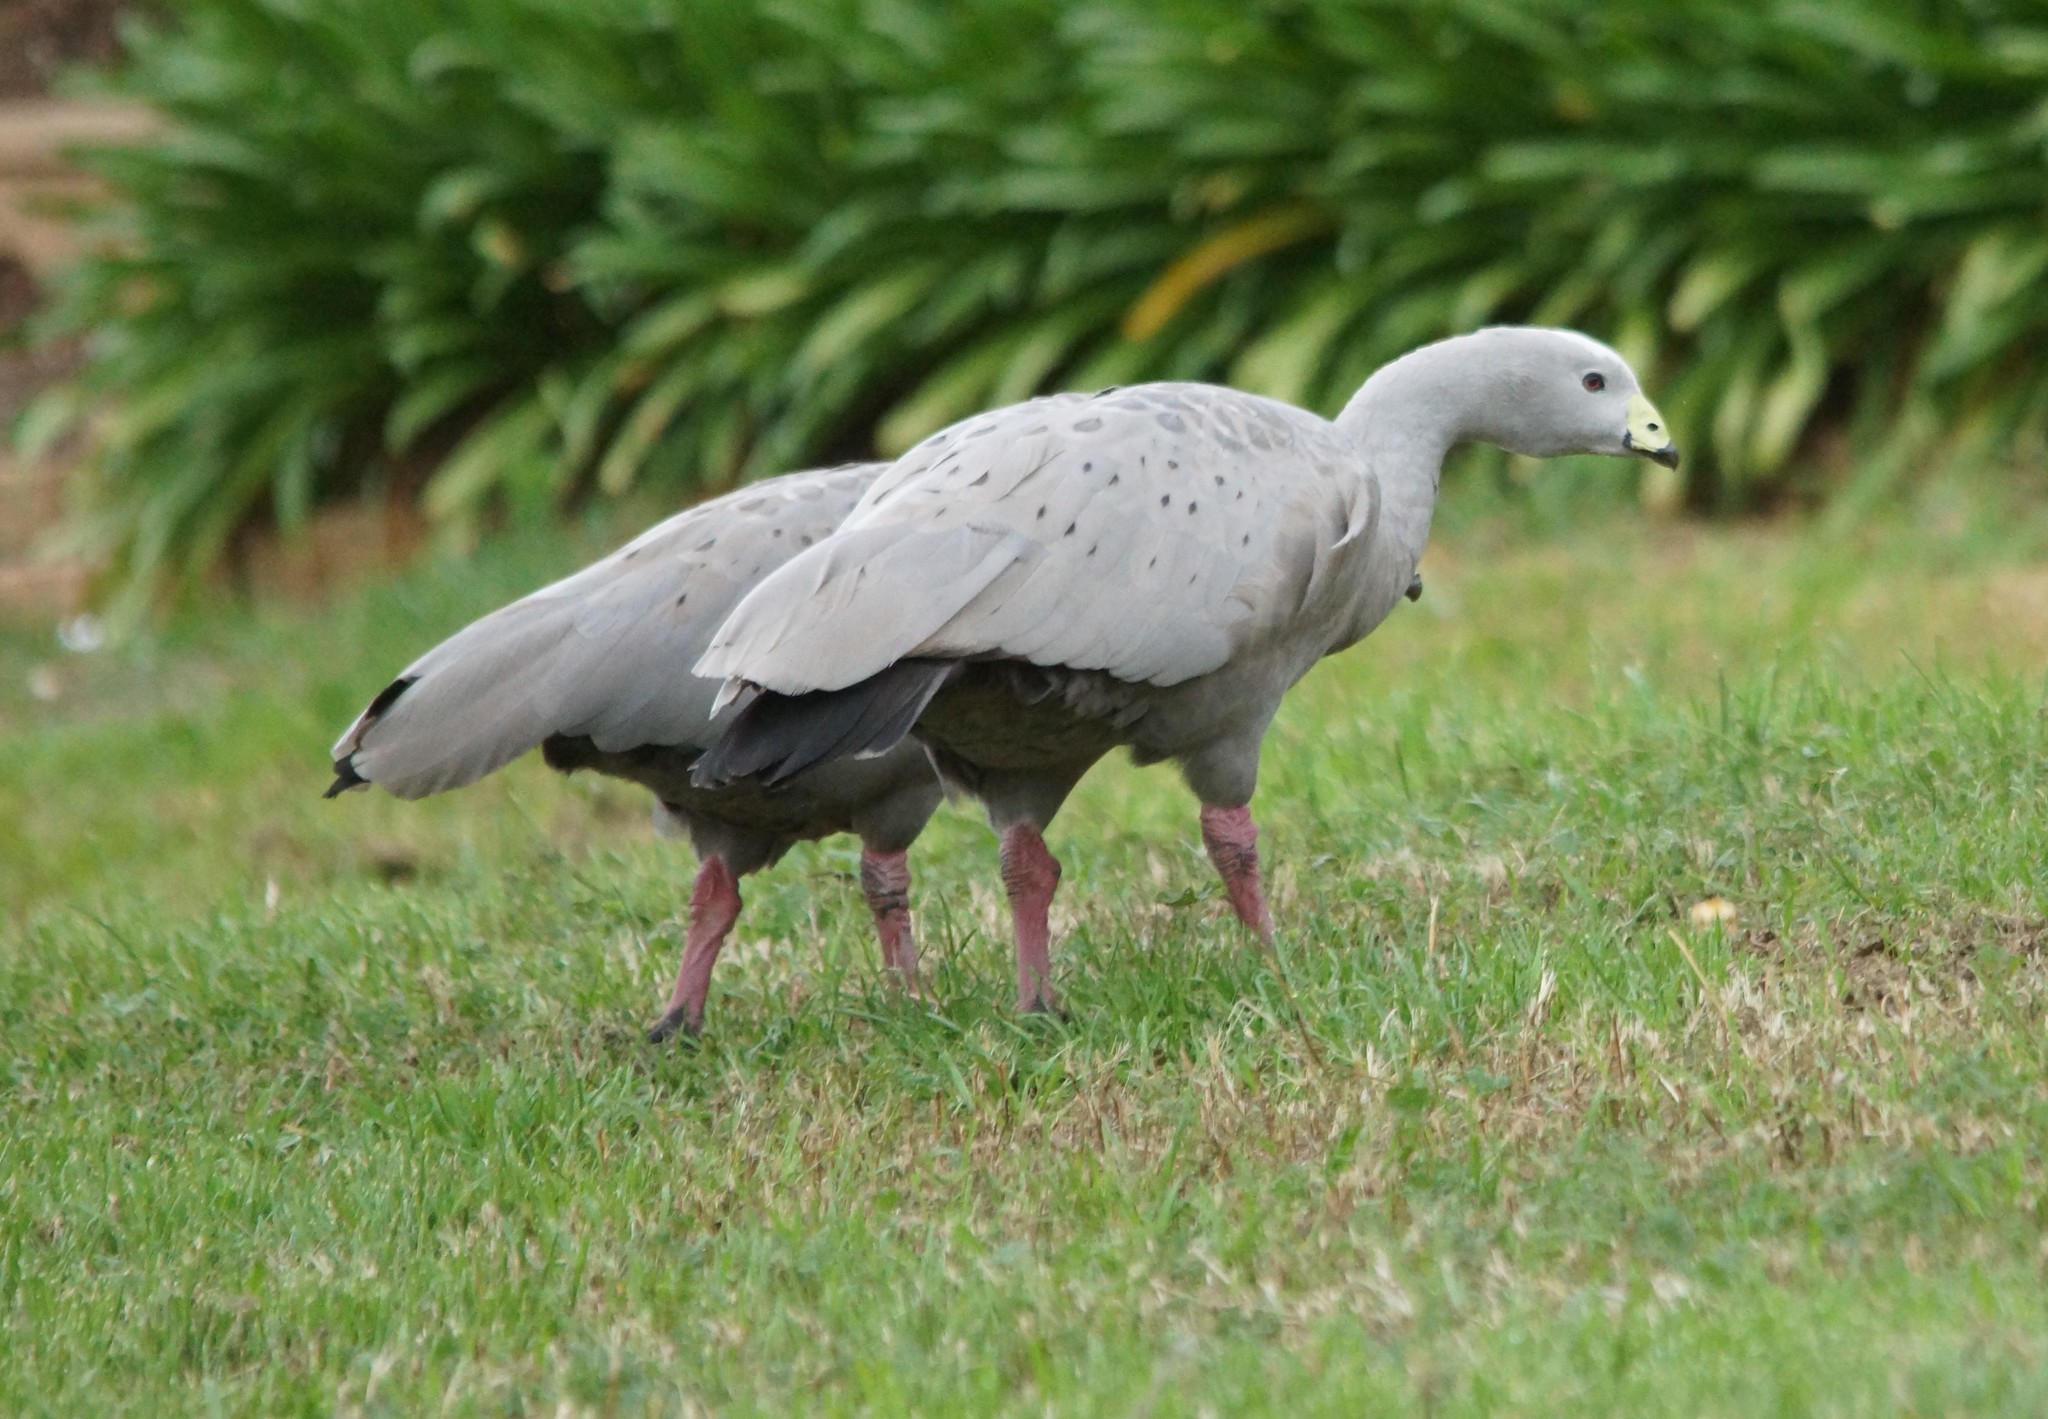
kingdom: Animalia
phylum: Chordata
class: Aves
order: Anseriformes
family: Anatidae
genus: Cereopsis
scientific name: Cereopsis novaehollandiae
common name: Cape barren goose
